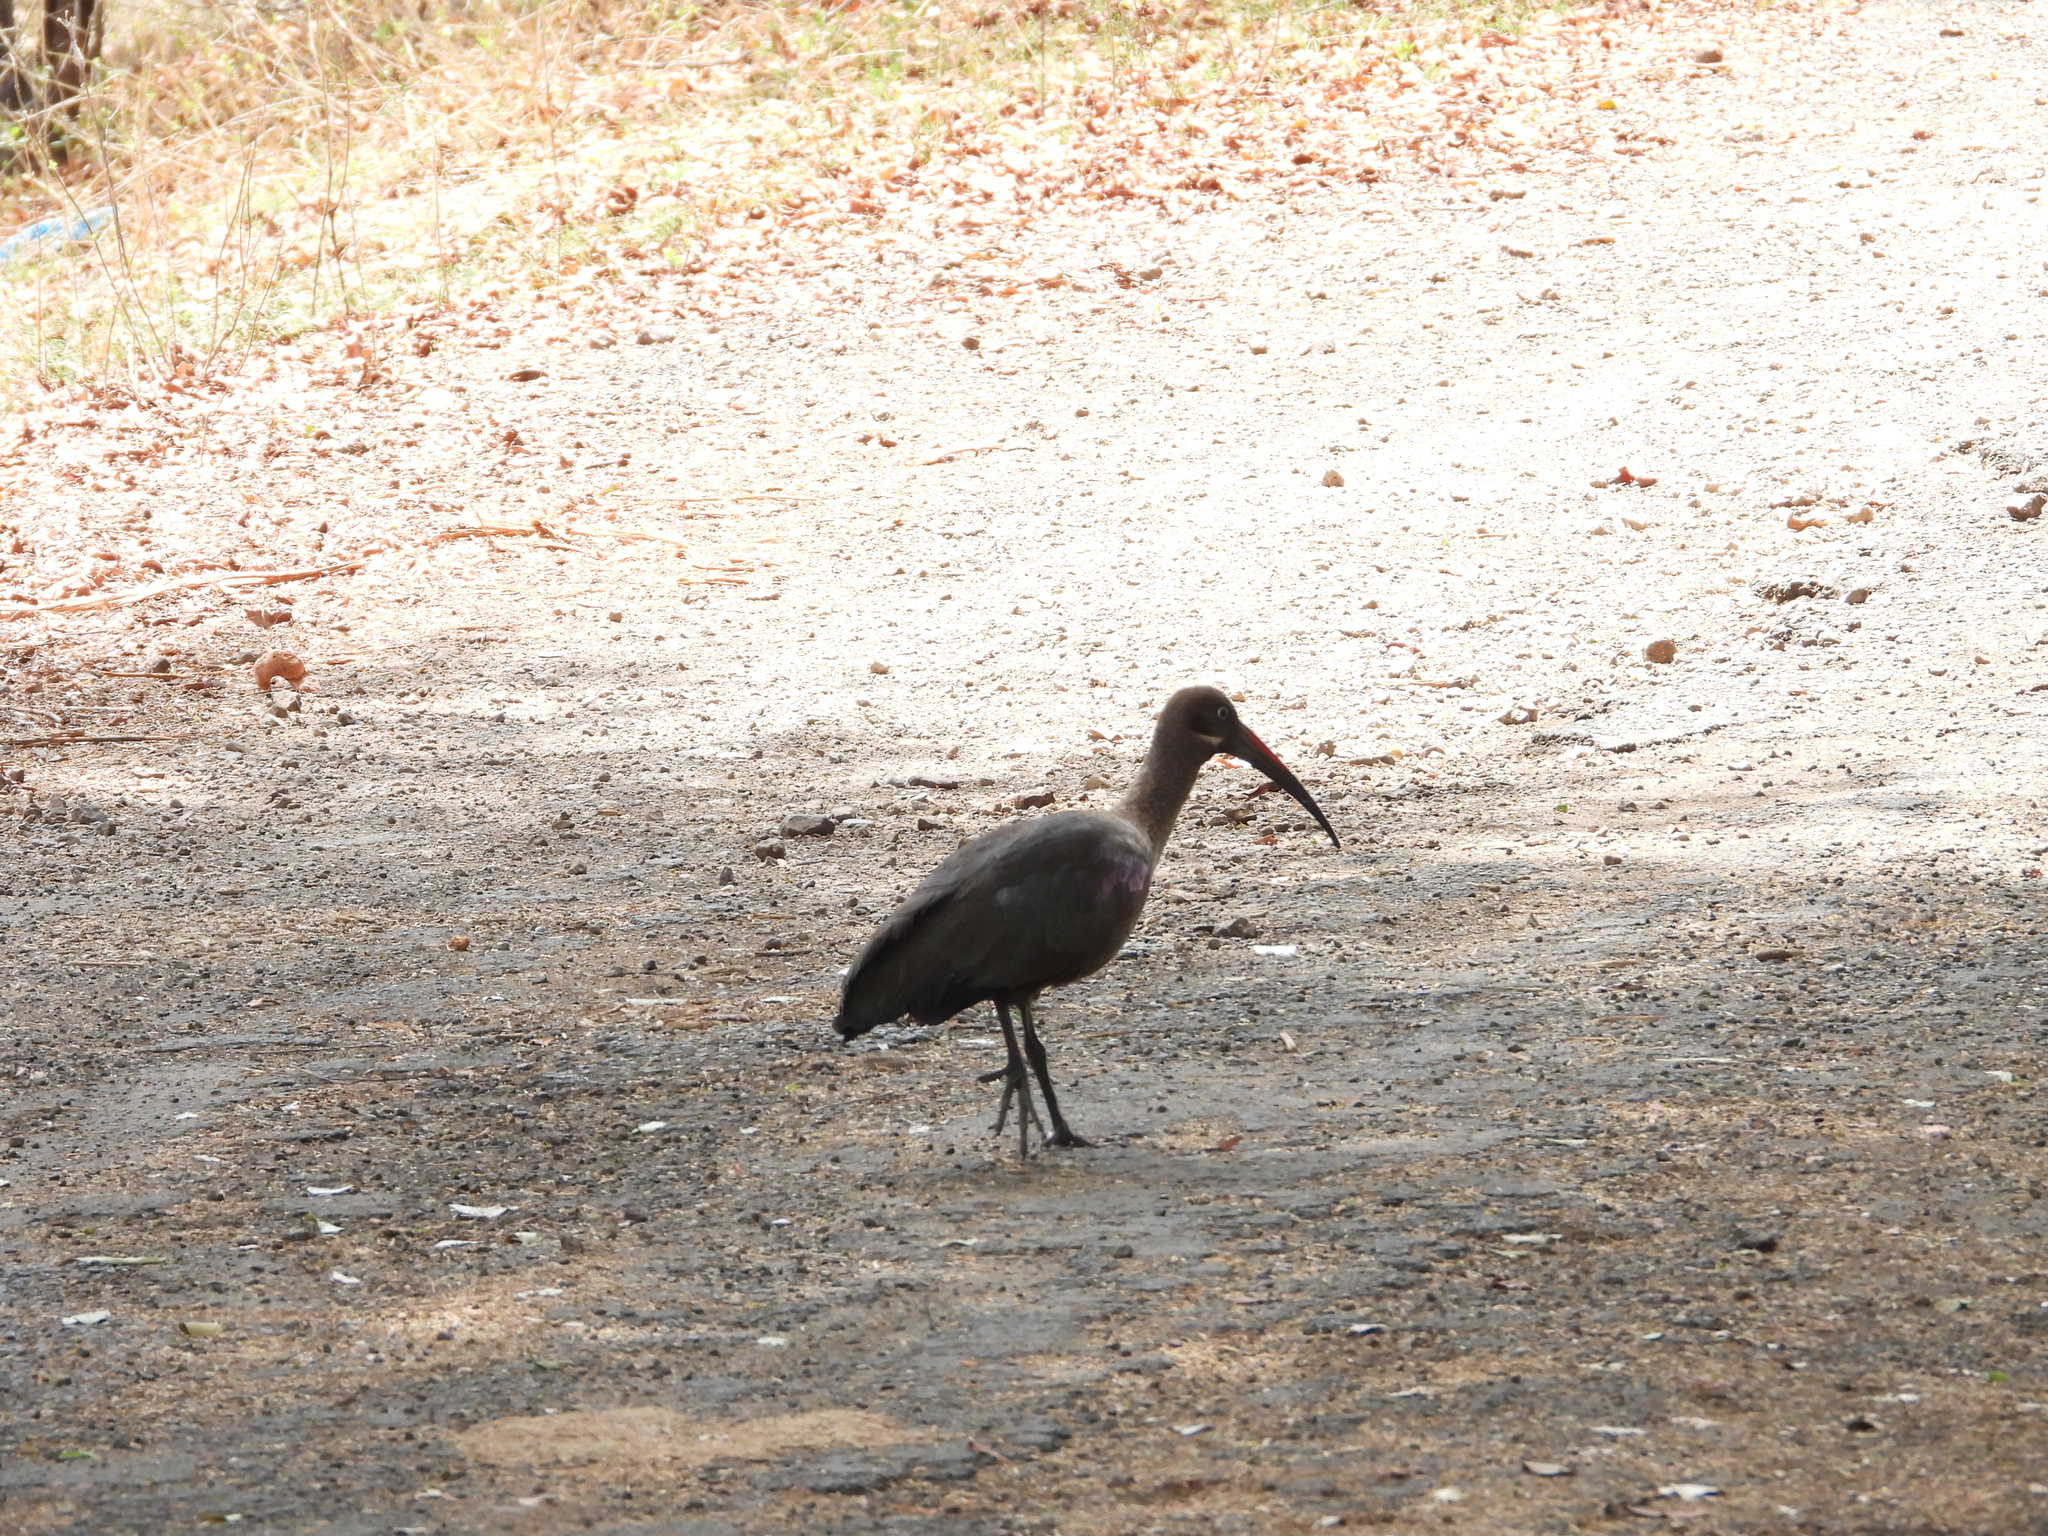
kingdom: Animalia
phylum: Chordata
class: Aves
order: Pelecaniformes
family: Threskiornithidae
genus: Bostrychia
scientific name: Bostrychia hagedash
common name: Hadada ibis
